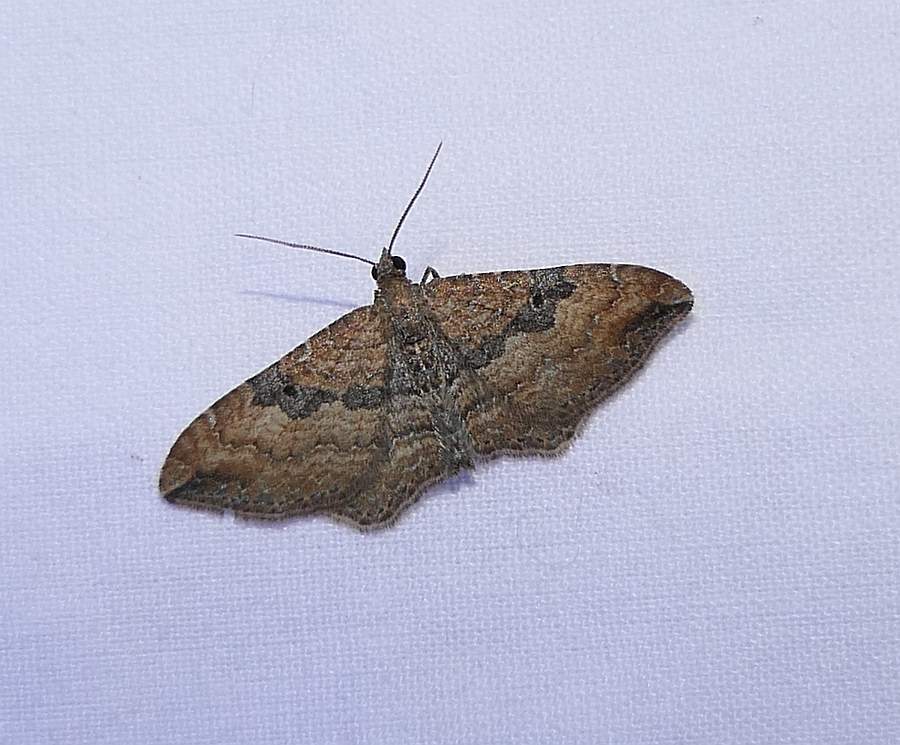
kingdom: Animalia
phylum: Arthropoda
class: Insecta
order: Lepidoptera
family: Geometridae
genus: Orthonama
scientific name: Orthonama obstipata
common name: The gem
